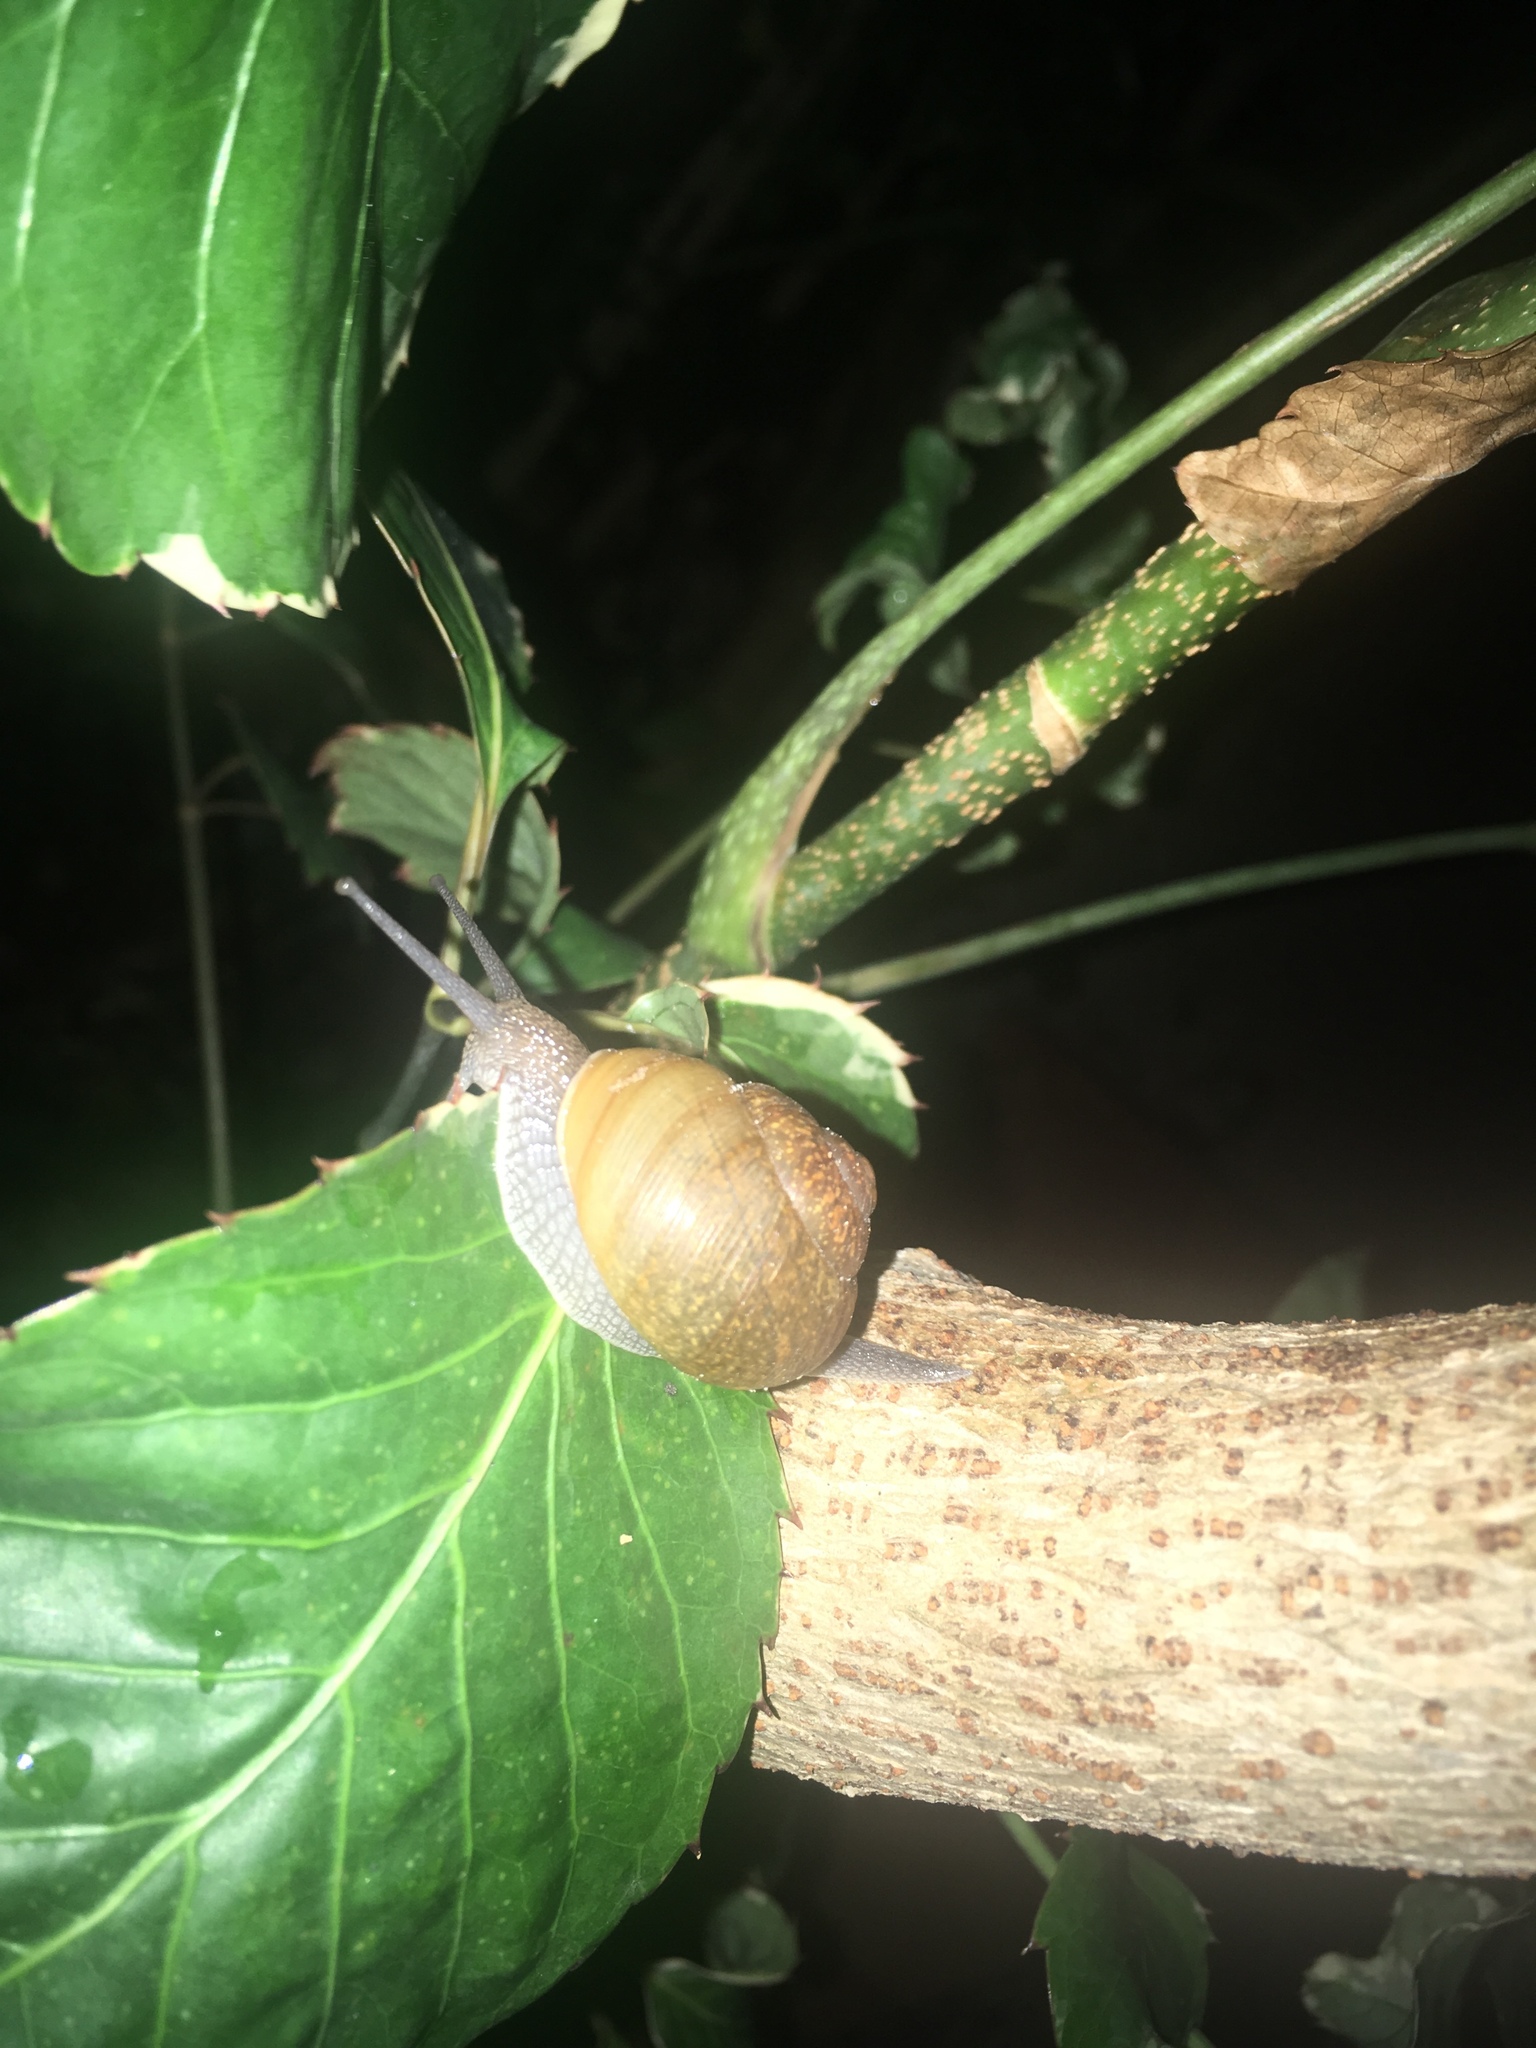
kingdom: Animalia
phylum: Mollusca
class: Gastropoda
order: Stylommatophora
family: Zachrysiidae
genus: Zachrysia
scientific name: Zachrysia provisoria
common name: Garden zachrysia
